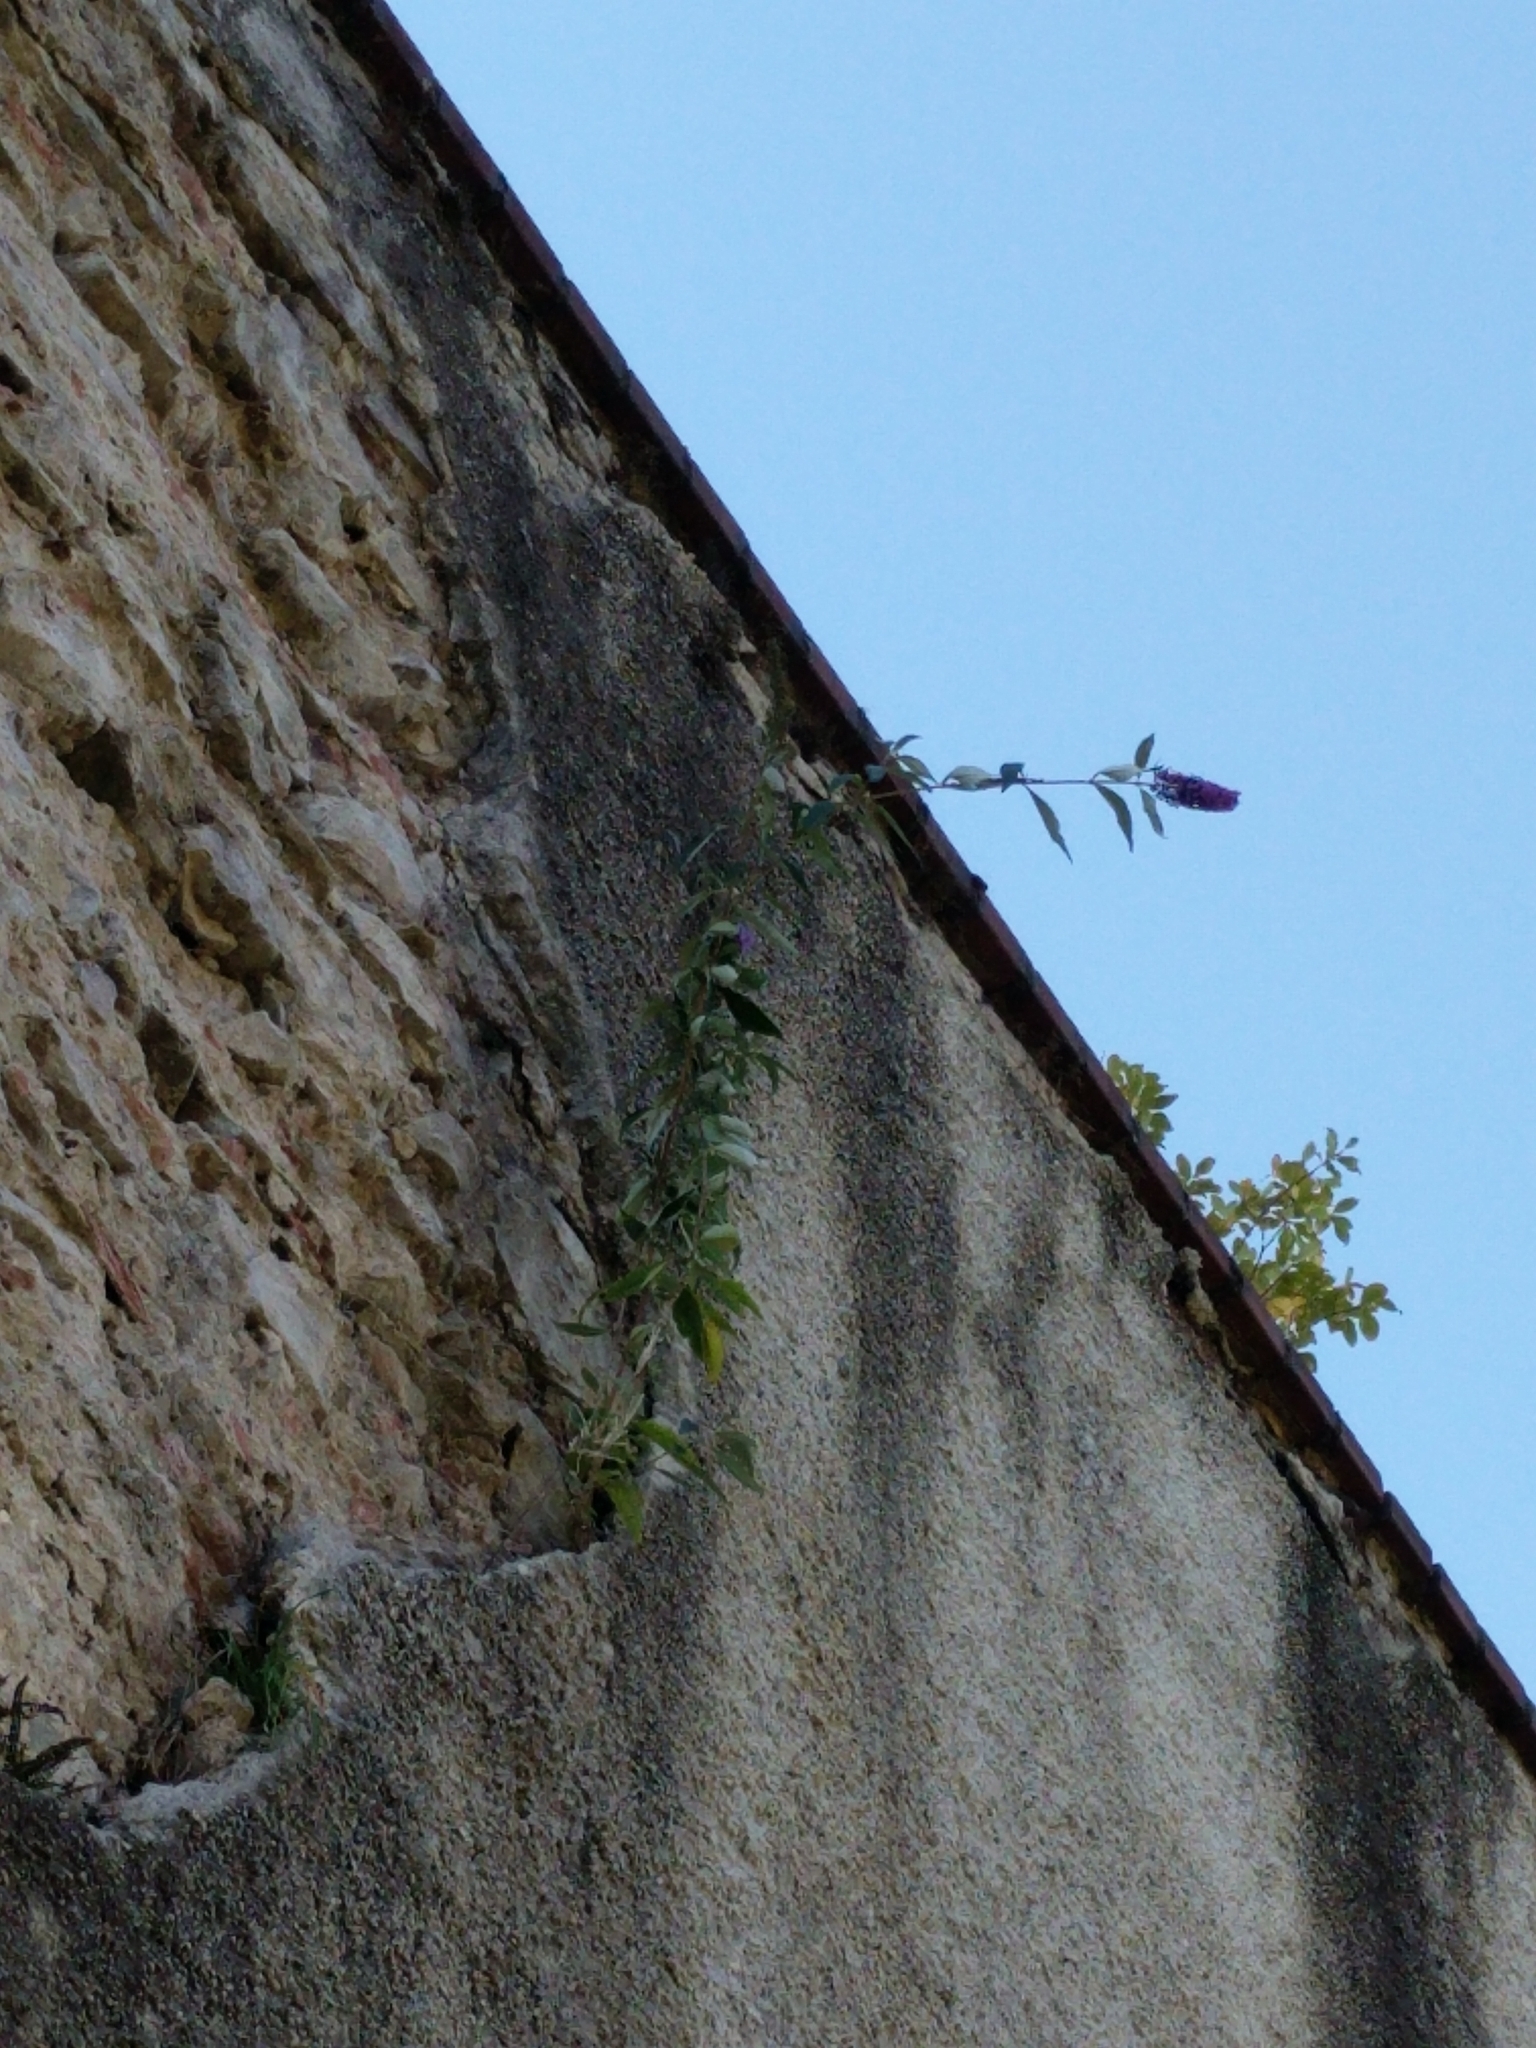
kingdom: Plantae
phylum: Tracheophyta
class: Magnoliopsida
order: Lamiales
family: Scrophulariaceae
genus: Buddleja
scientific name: Buddleja davidii
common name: Butterfly-bush
